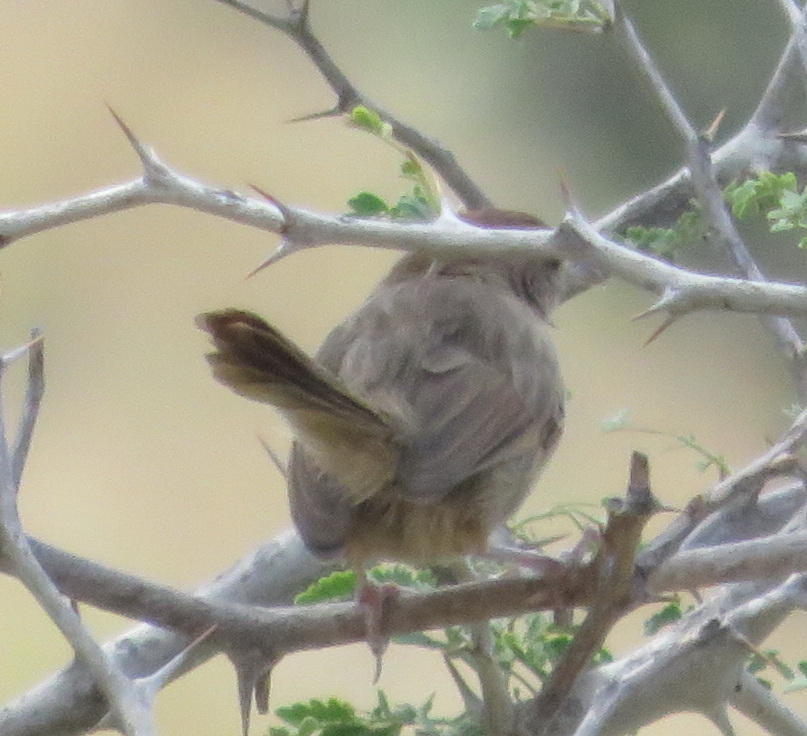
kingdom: Animalia
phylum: Chordata
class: Aves
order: Passeriformes
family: Cisticolidae
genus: Cisticola
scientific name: Cisticola aberrans
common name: Lazy cisticola
